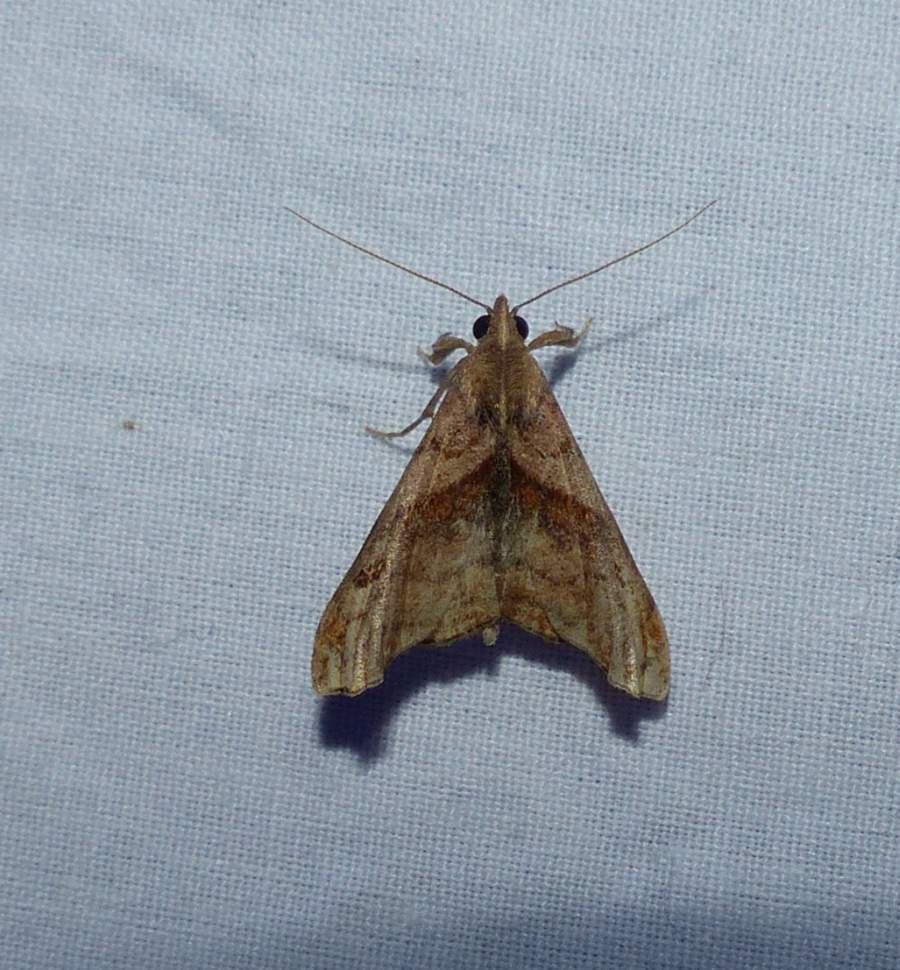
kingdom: Animalia
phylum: Arthropoda
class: Insecta
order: Lepidoptera
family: Erebidae
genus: Palthis
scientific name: Palthis angulalis
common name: Dark-spotted palthis moth
